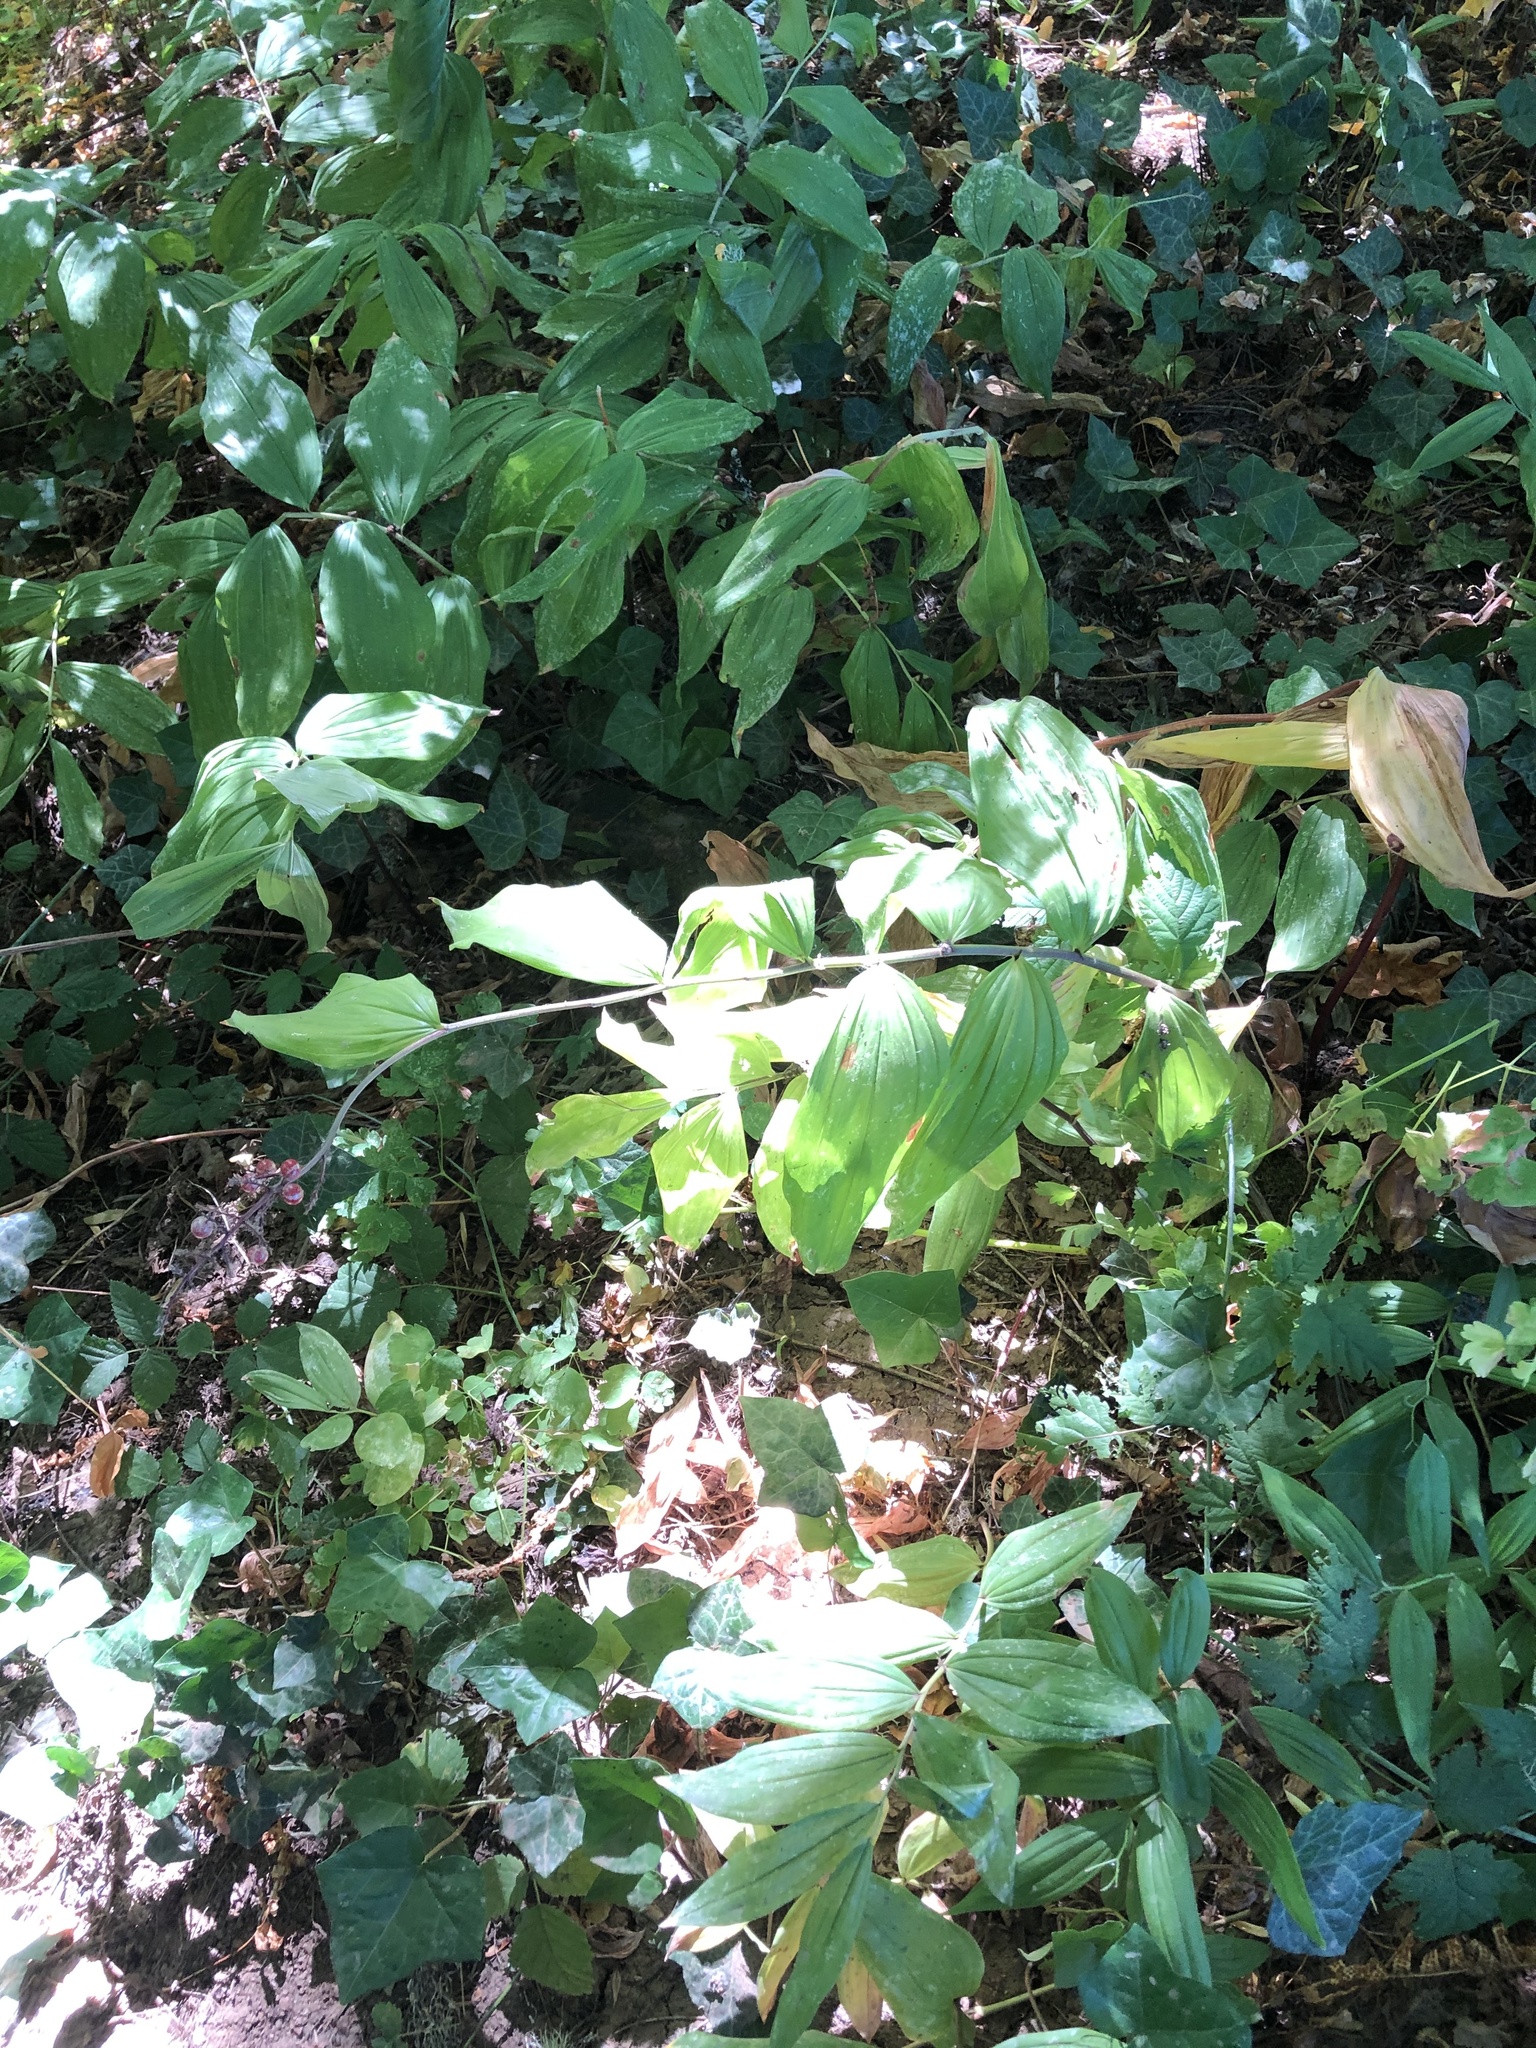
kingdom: Plantae
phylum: Tracheophyta
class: Liliopsida
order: Asparagales
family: Asparagaceae
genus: Maianthemum
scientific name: Maianthemum racemosum
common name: False spikenard
